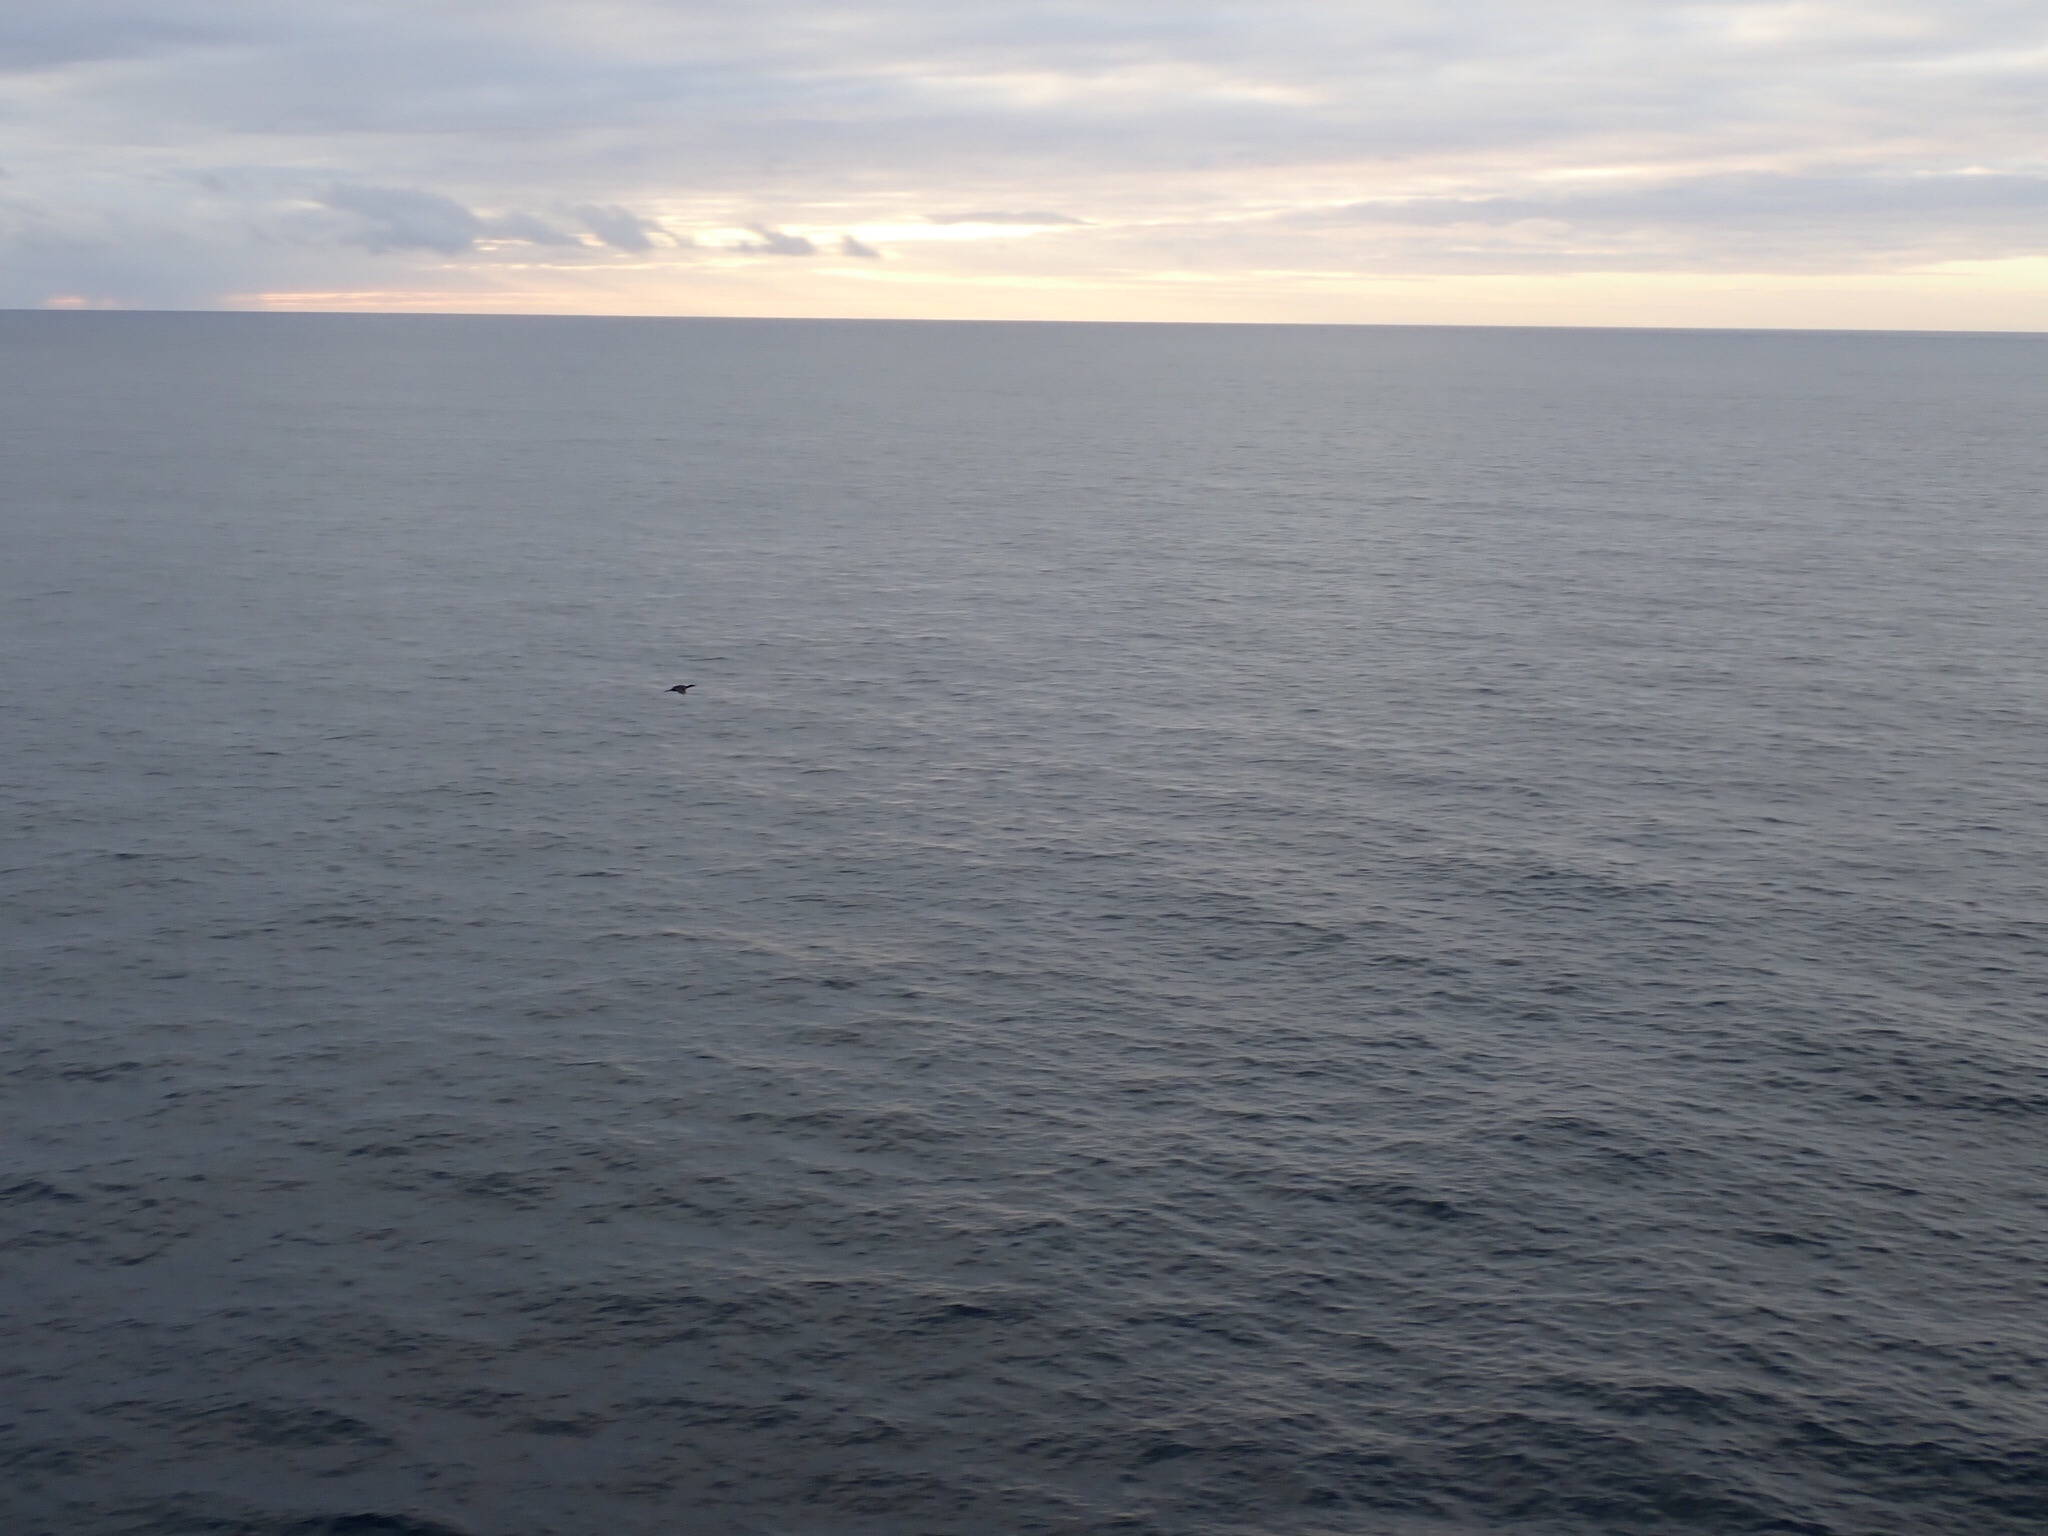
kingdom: Animalia
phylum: Chordata
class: Aves
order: Suliformes
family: Phalacrocoracidae
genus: Phalacrocorax
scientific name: Phalacrocorax magellanicus
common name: Rock shag
